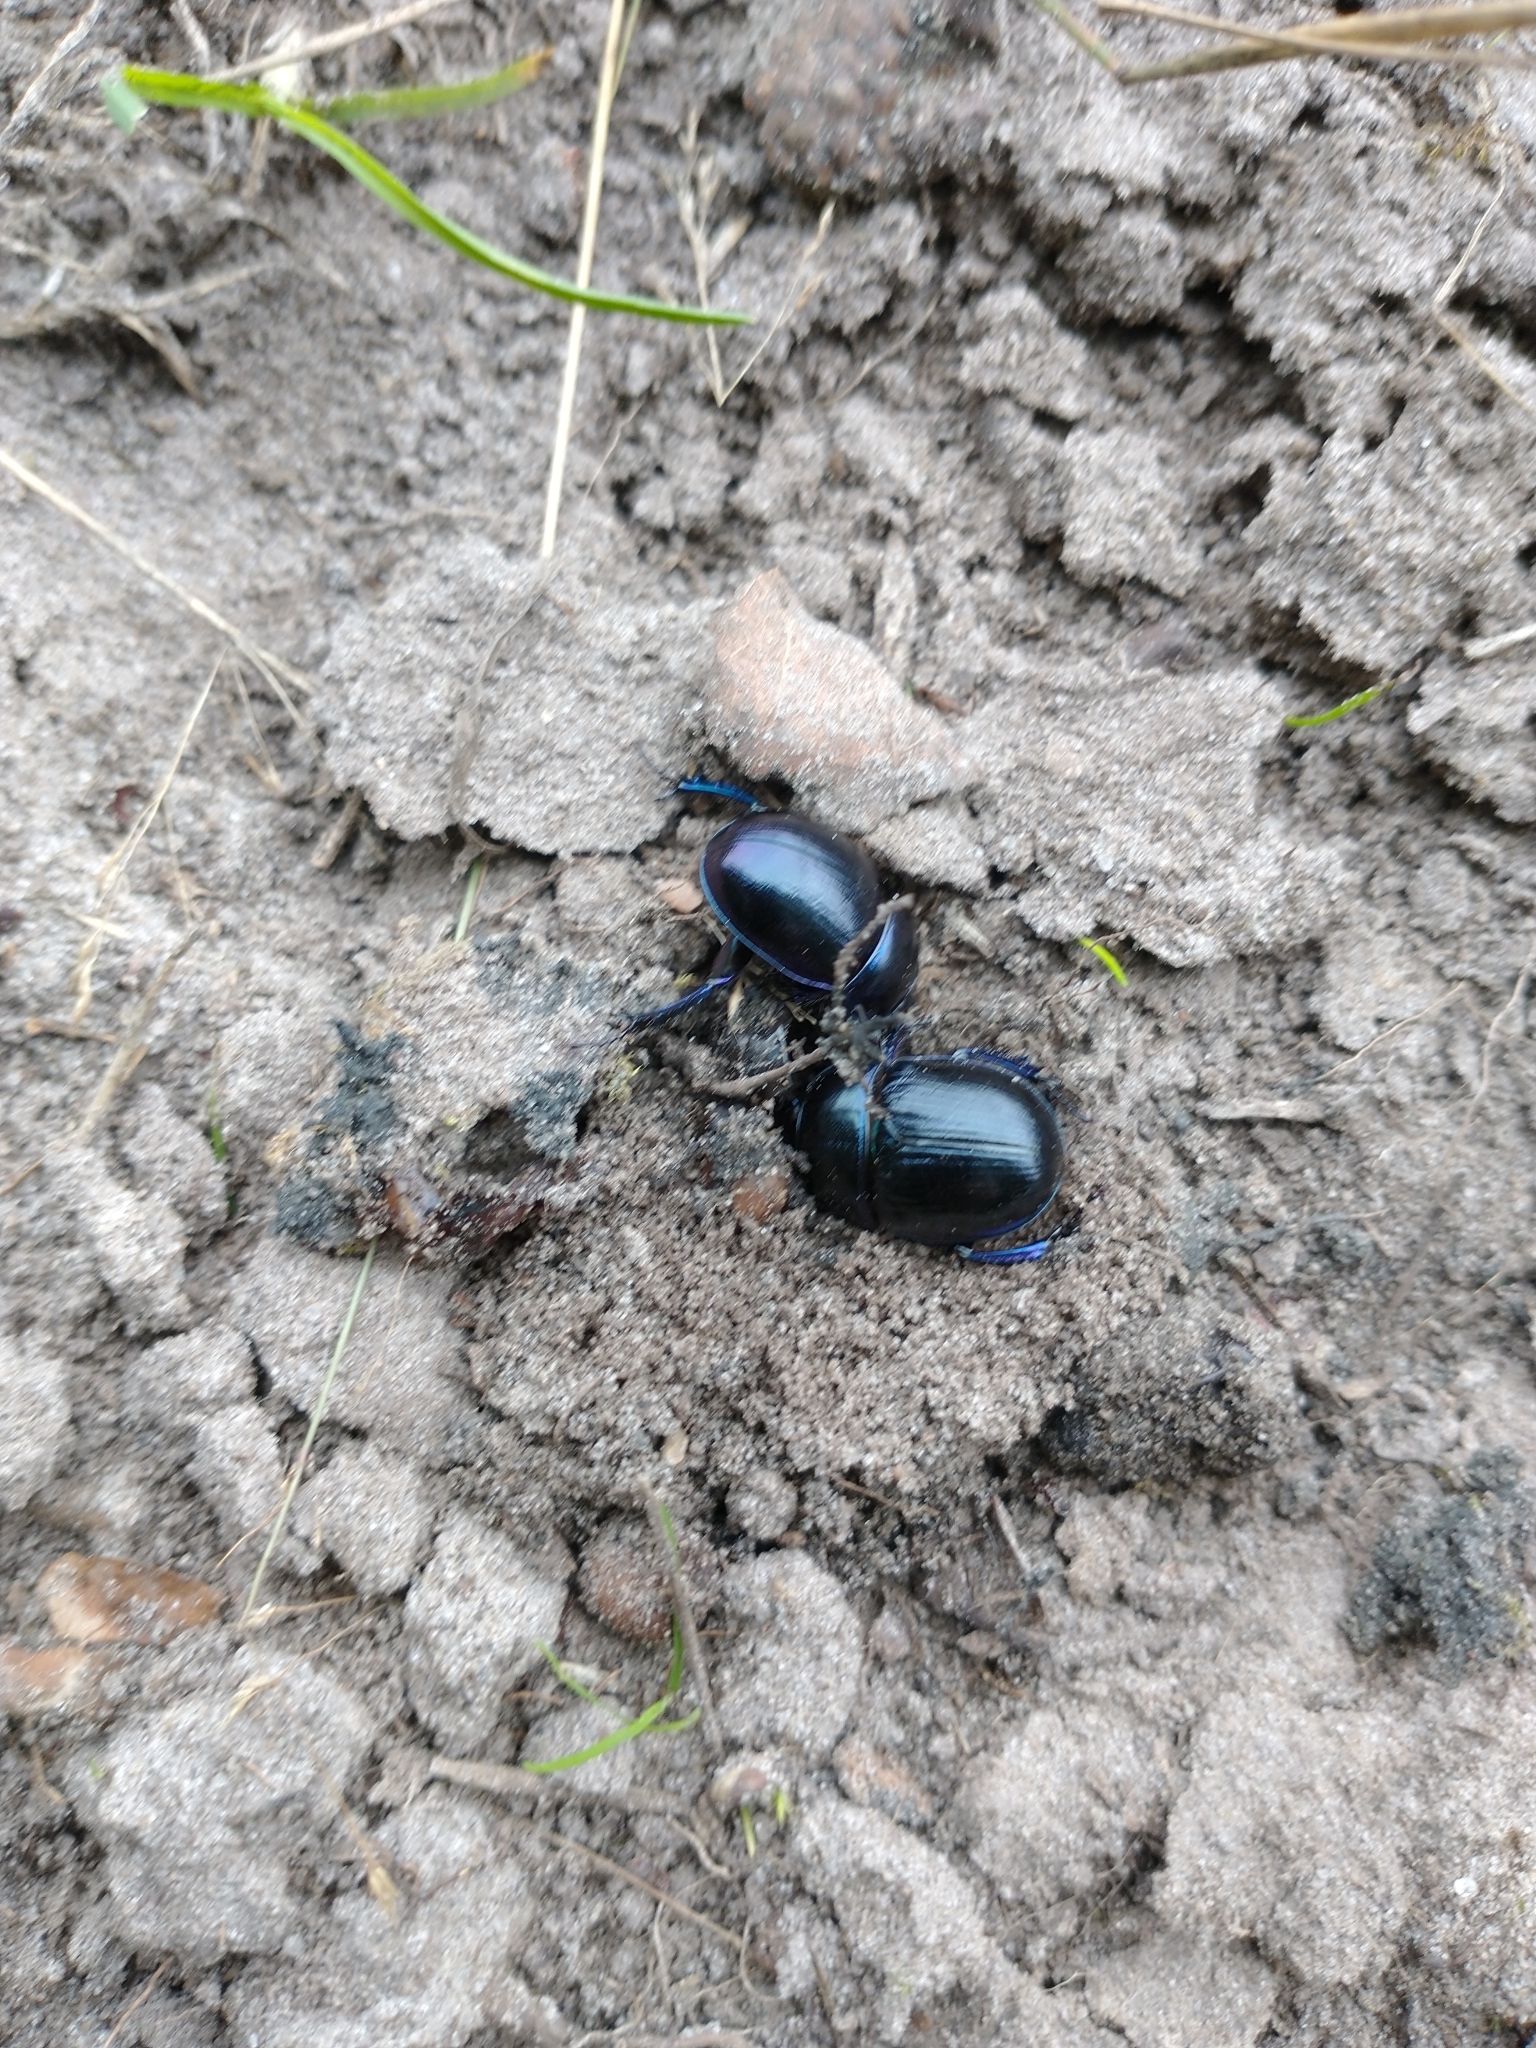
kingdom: Animalia
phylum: Arthropoda
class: Insecta
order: Coleoptera
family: Geotrupidae
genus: Anoplotrupes
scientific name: Anoplotrupes stercorosus
